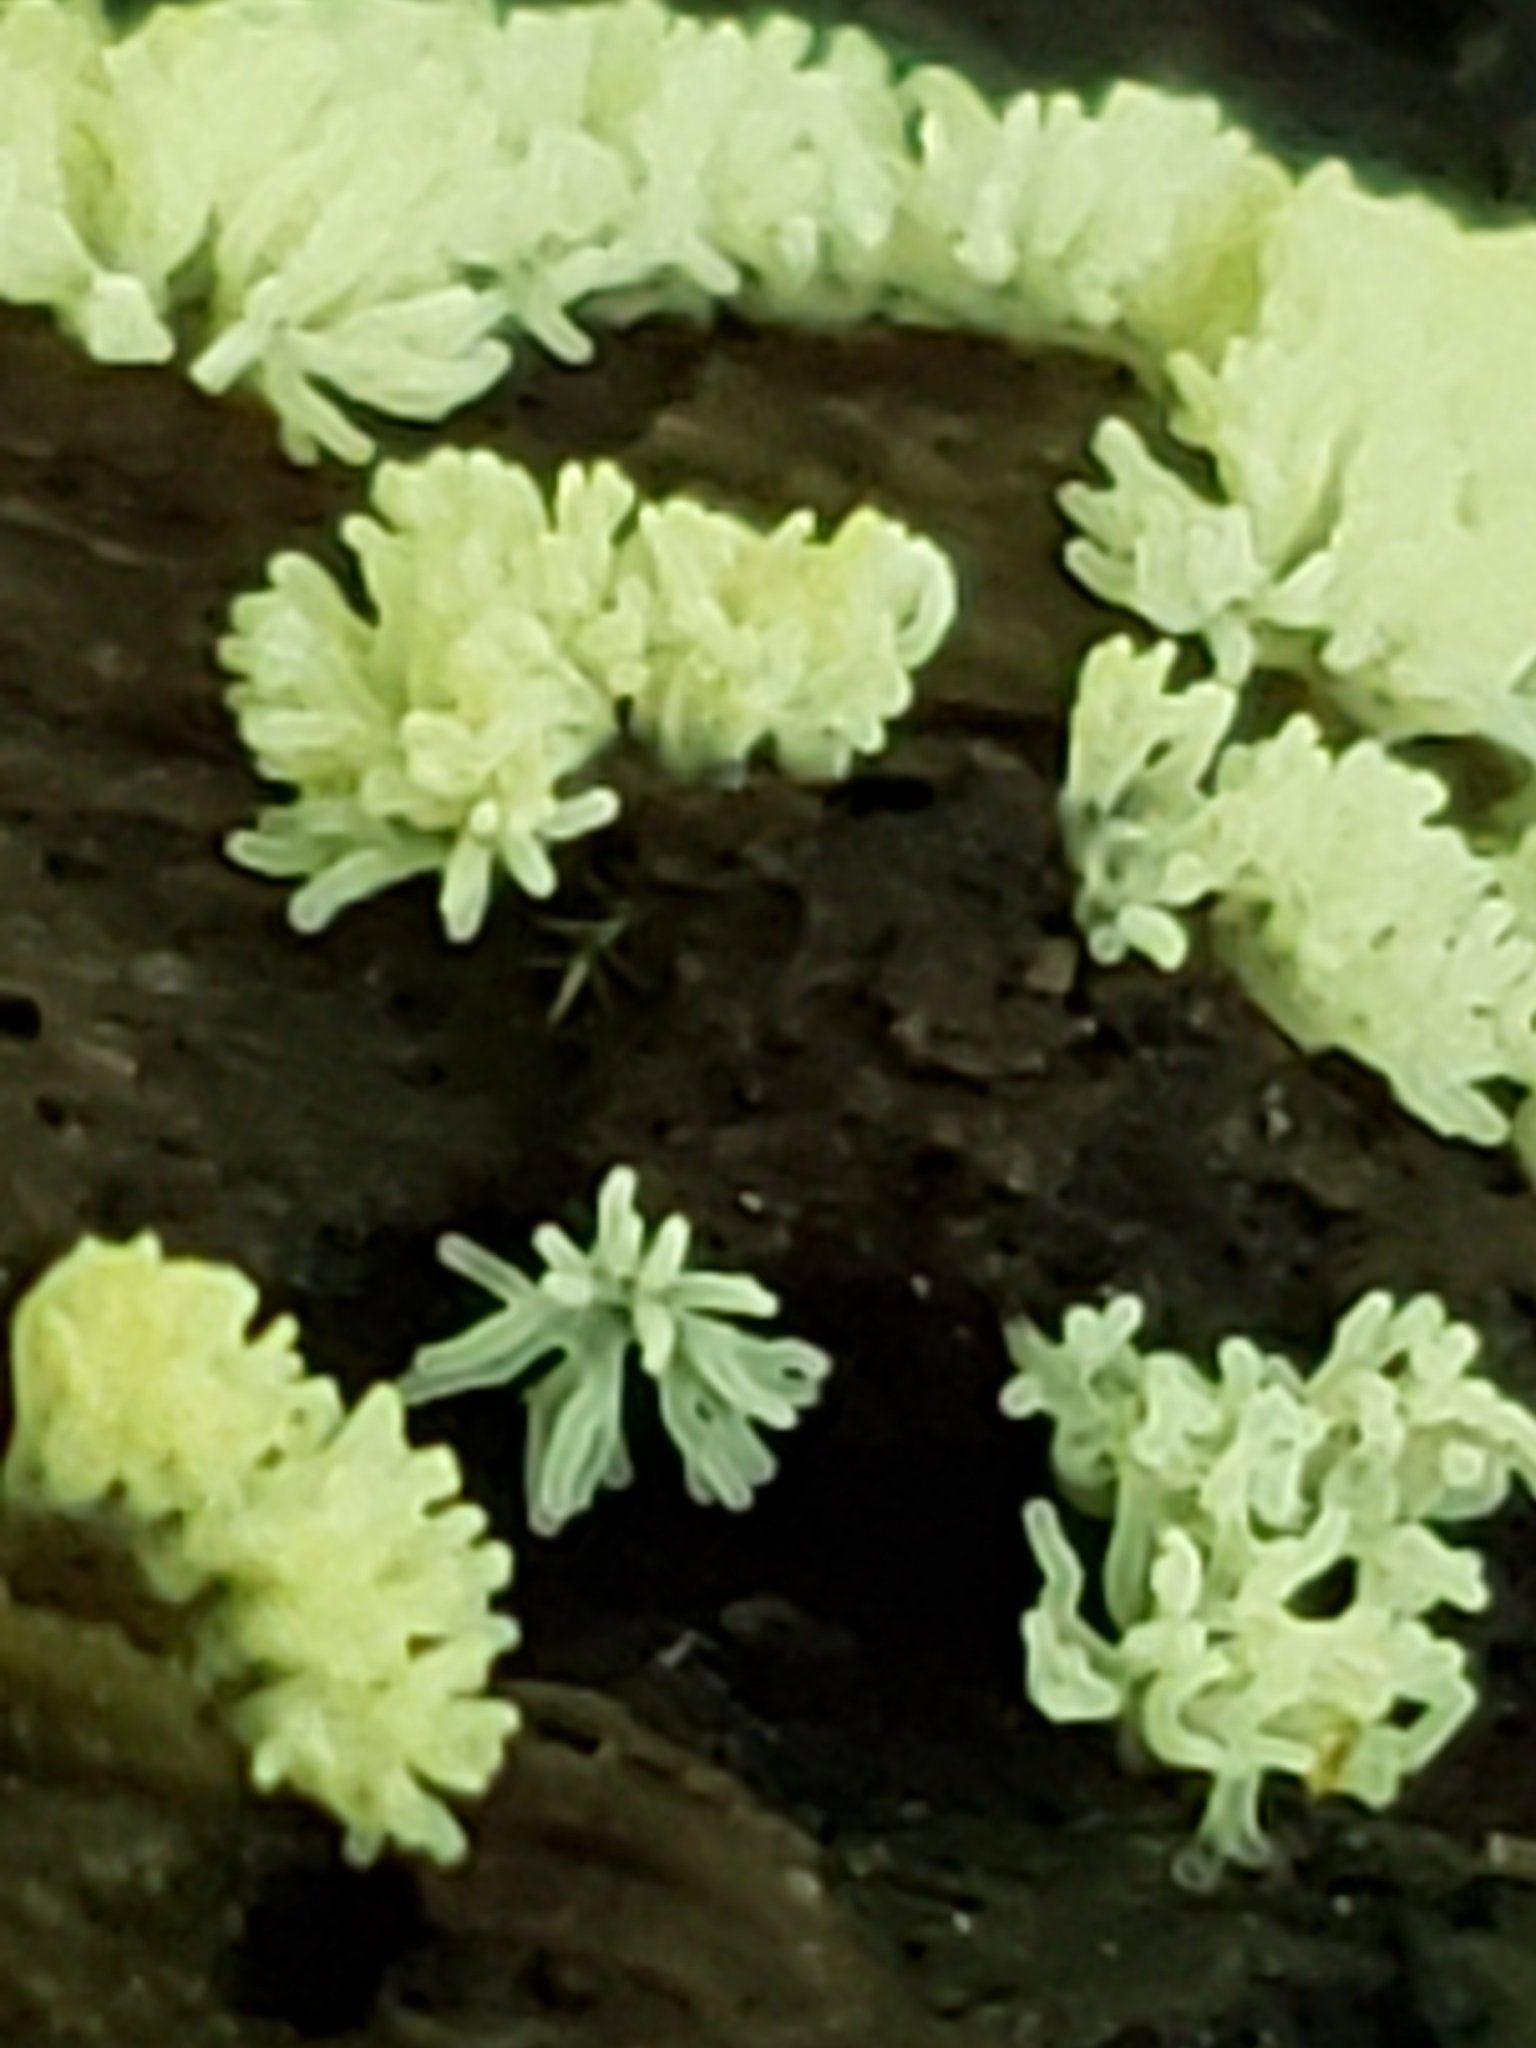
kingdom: Protozoa
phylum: Mycetozoa
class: Protosteliomycetes
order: Ceratiomyxales
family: Ceratiomyxaceae
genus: Ceratiomyxa
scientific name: Ceratiomyxa fruticulosa
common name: Honeycomb coral slime mold
